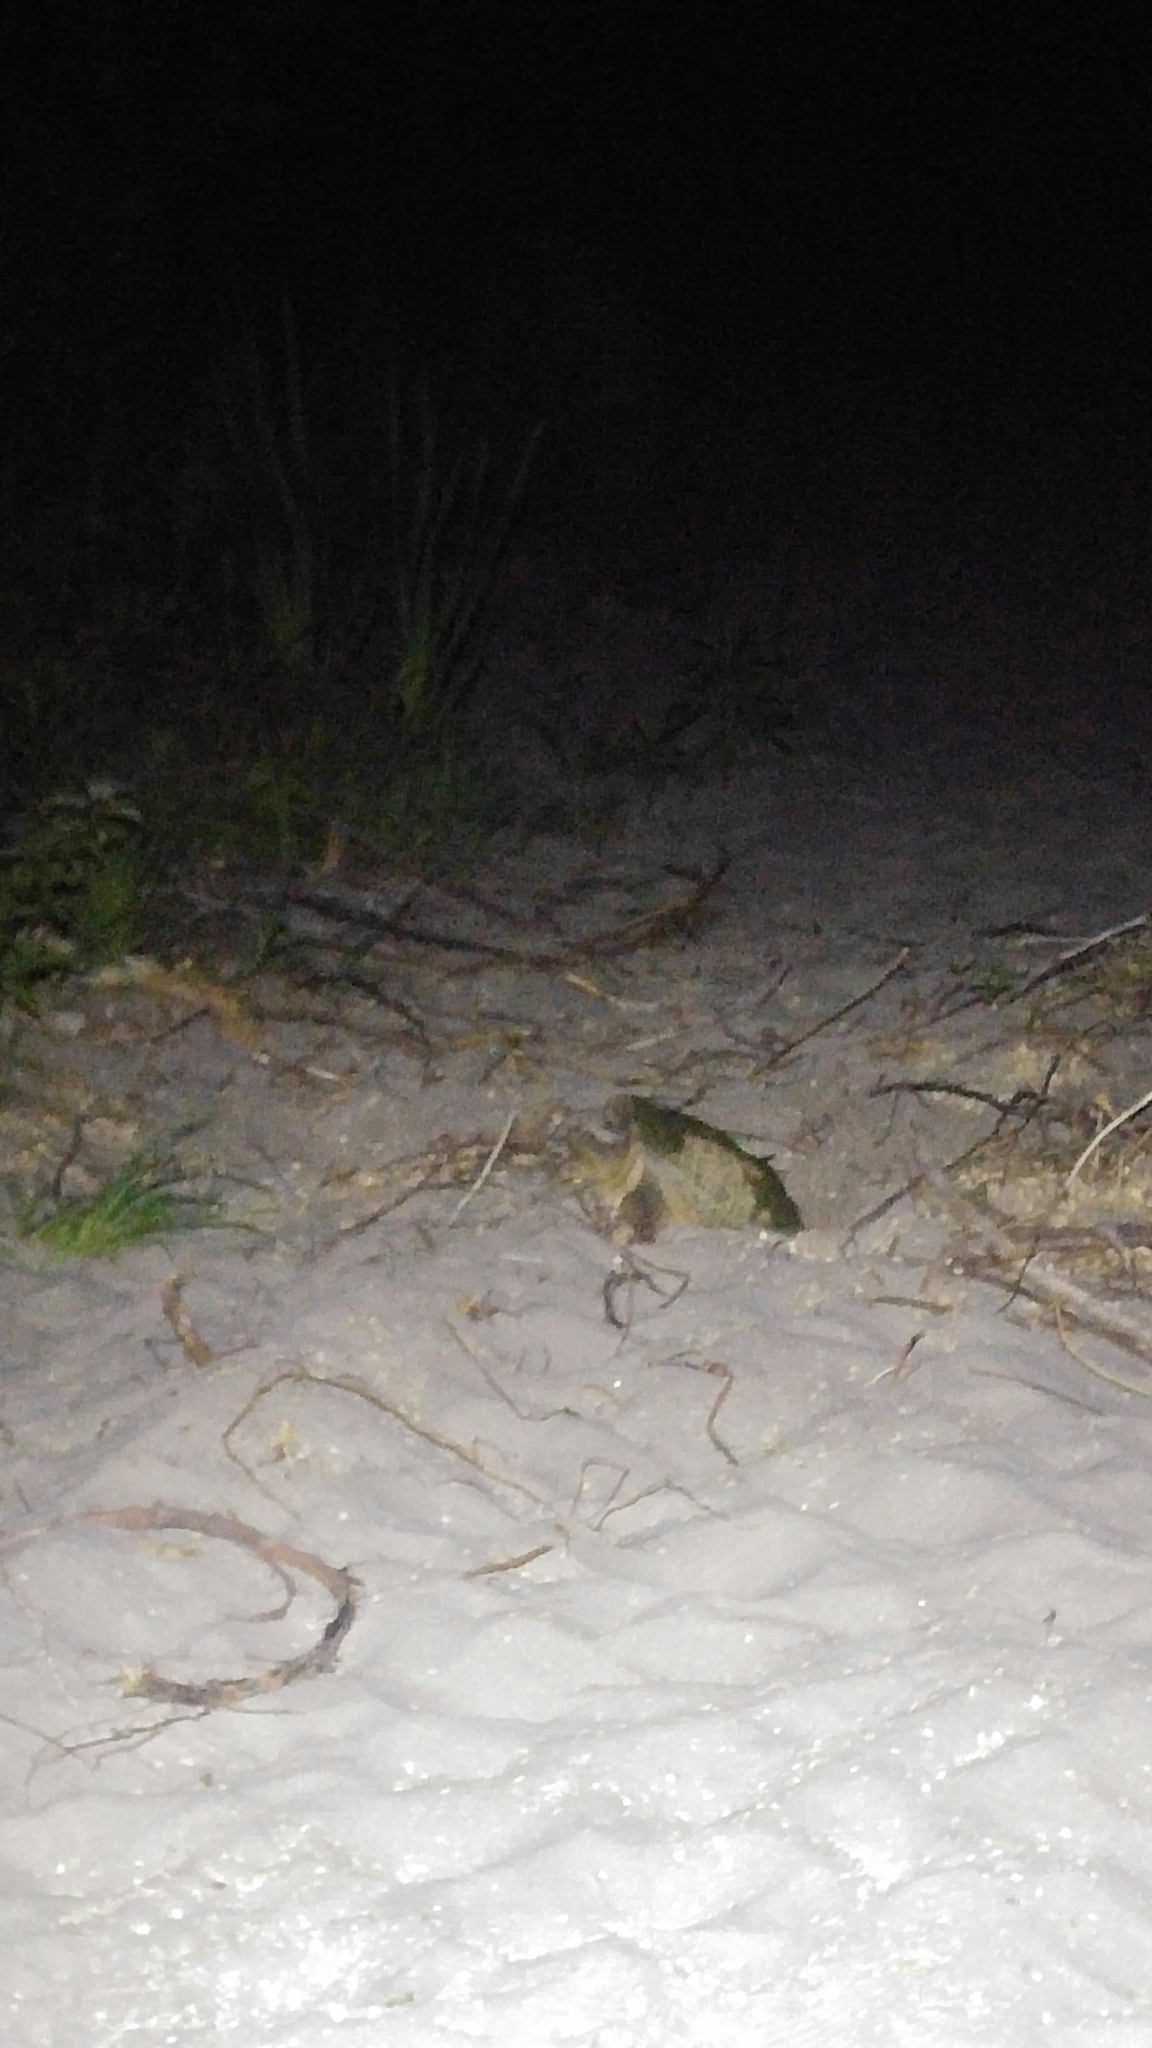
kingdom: Animalia
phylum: Chordata
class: Testudines
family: Chelydridae
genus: Chelydra
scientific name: Chelydra serpentina
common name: Common snapping turtle
